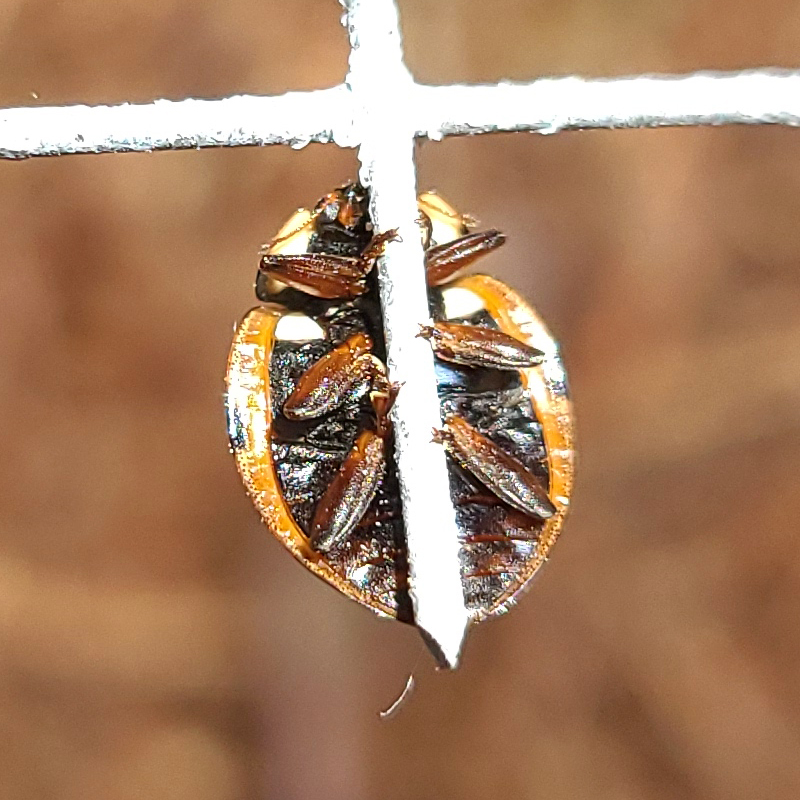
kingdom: Animalia
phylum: Arthropoda
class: Insecta
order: Coleoptera
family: Coccinellidae
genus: Anatis
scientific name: Anatis mali
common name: Eye-spotted lady beetle
